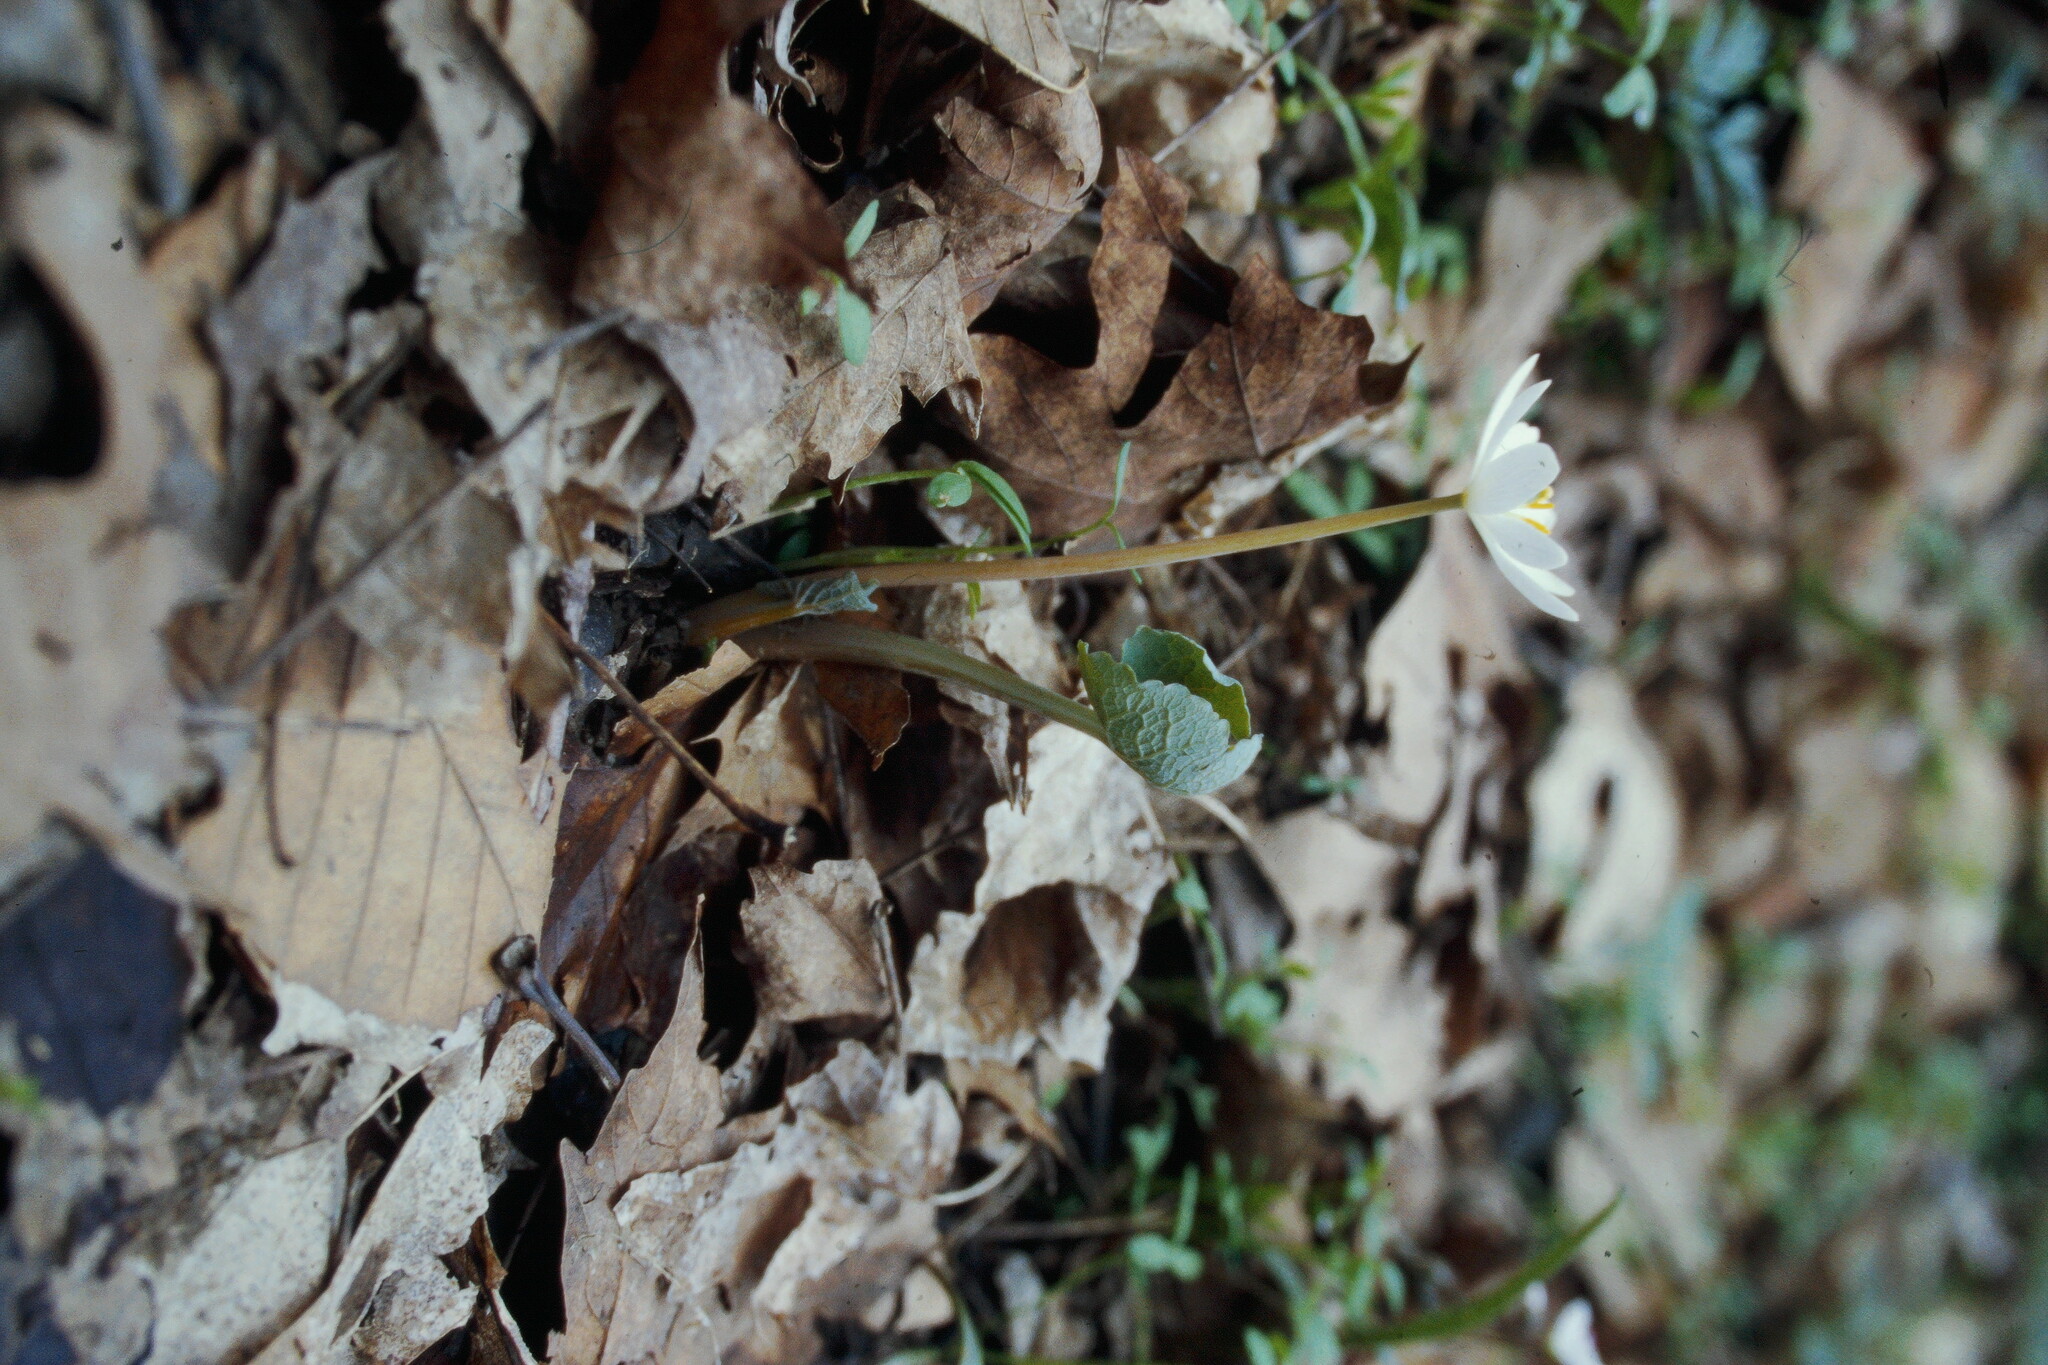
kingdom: Plantae
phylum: Tracheophyta
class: Magnoliopsida
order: Ranunculales
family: Papaveraceae
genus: Sanguinaria
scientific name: Sanguinaria canadensis
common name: Bloodroot
